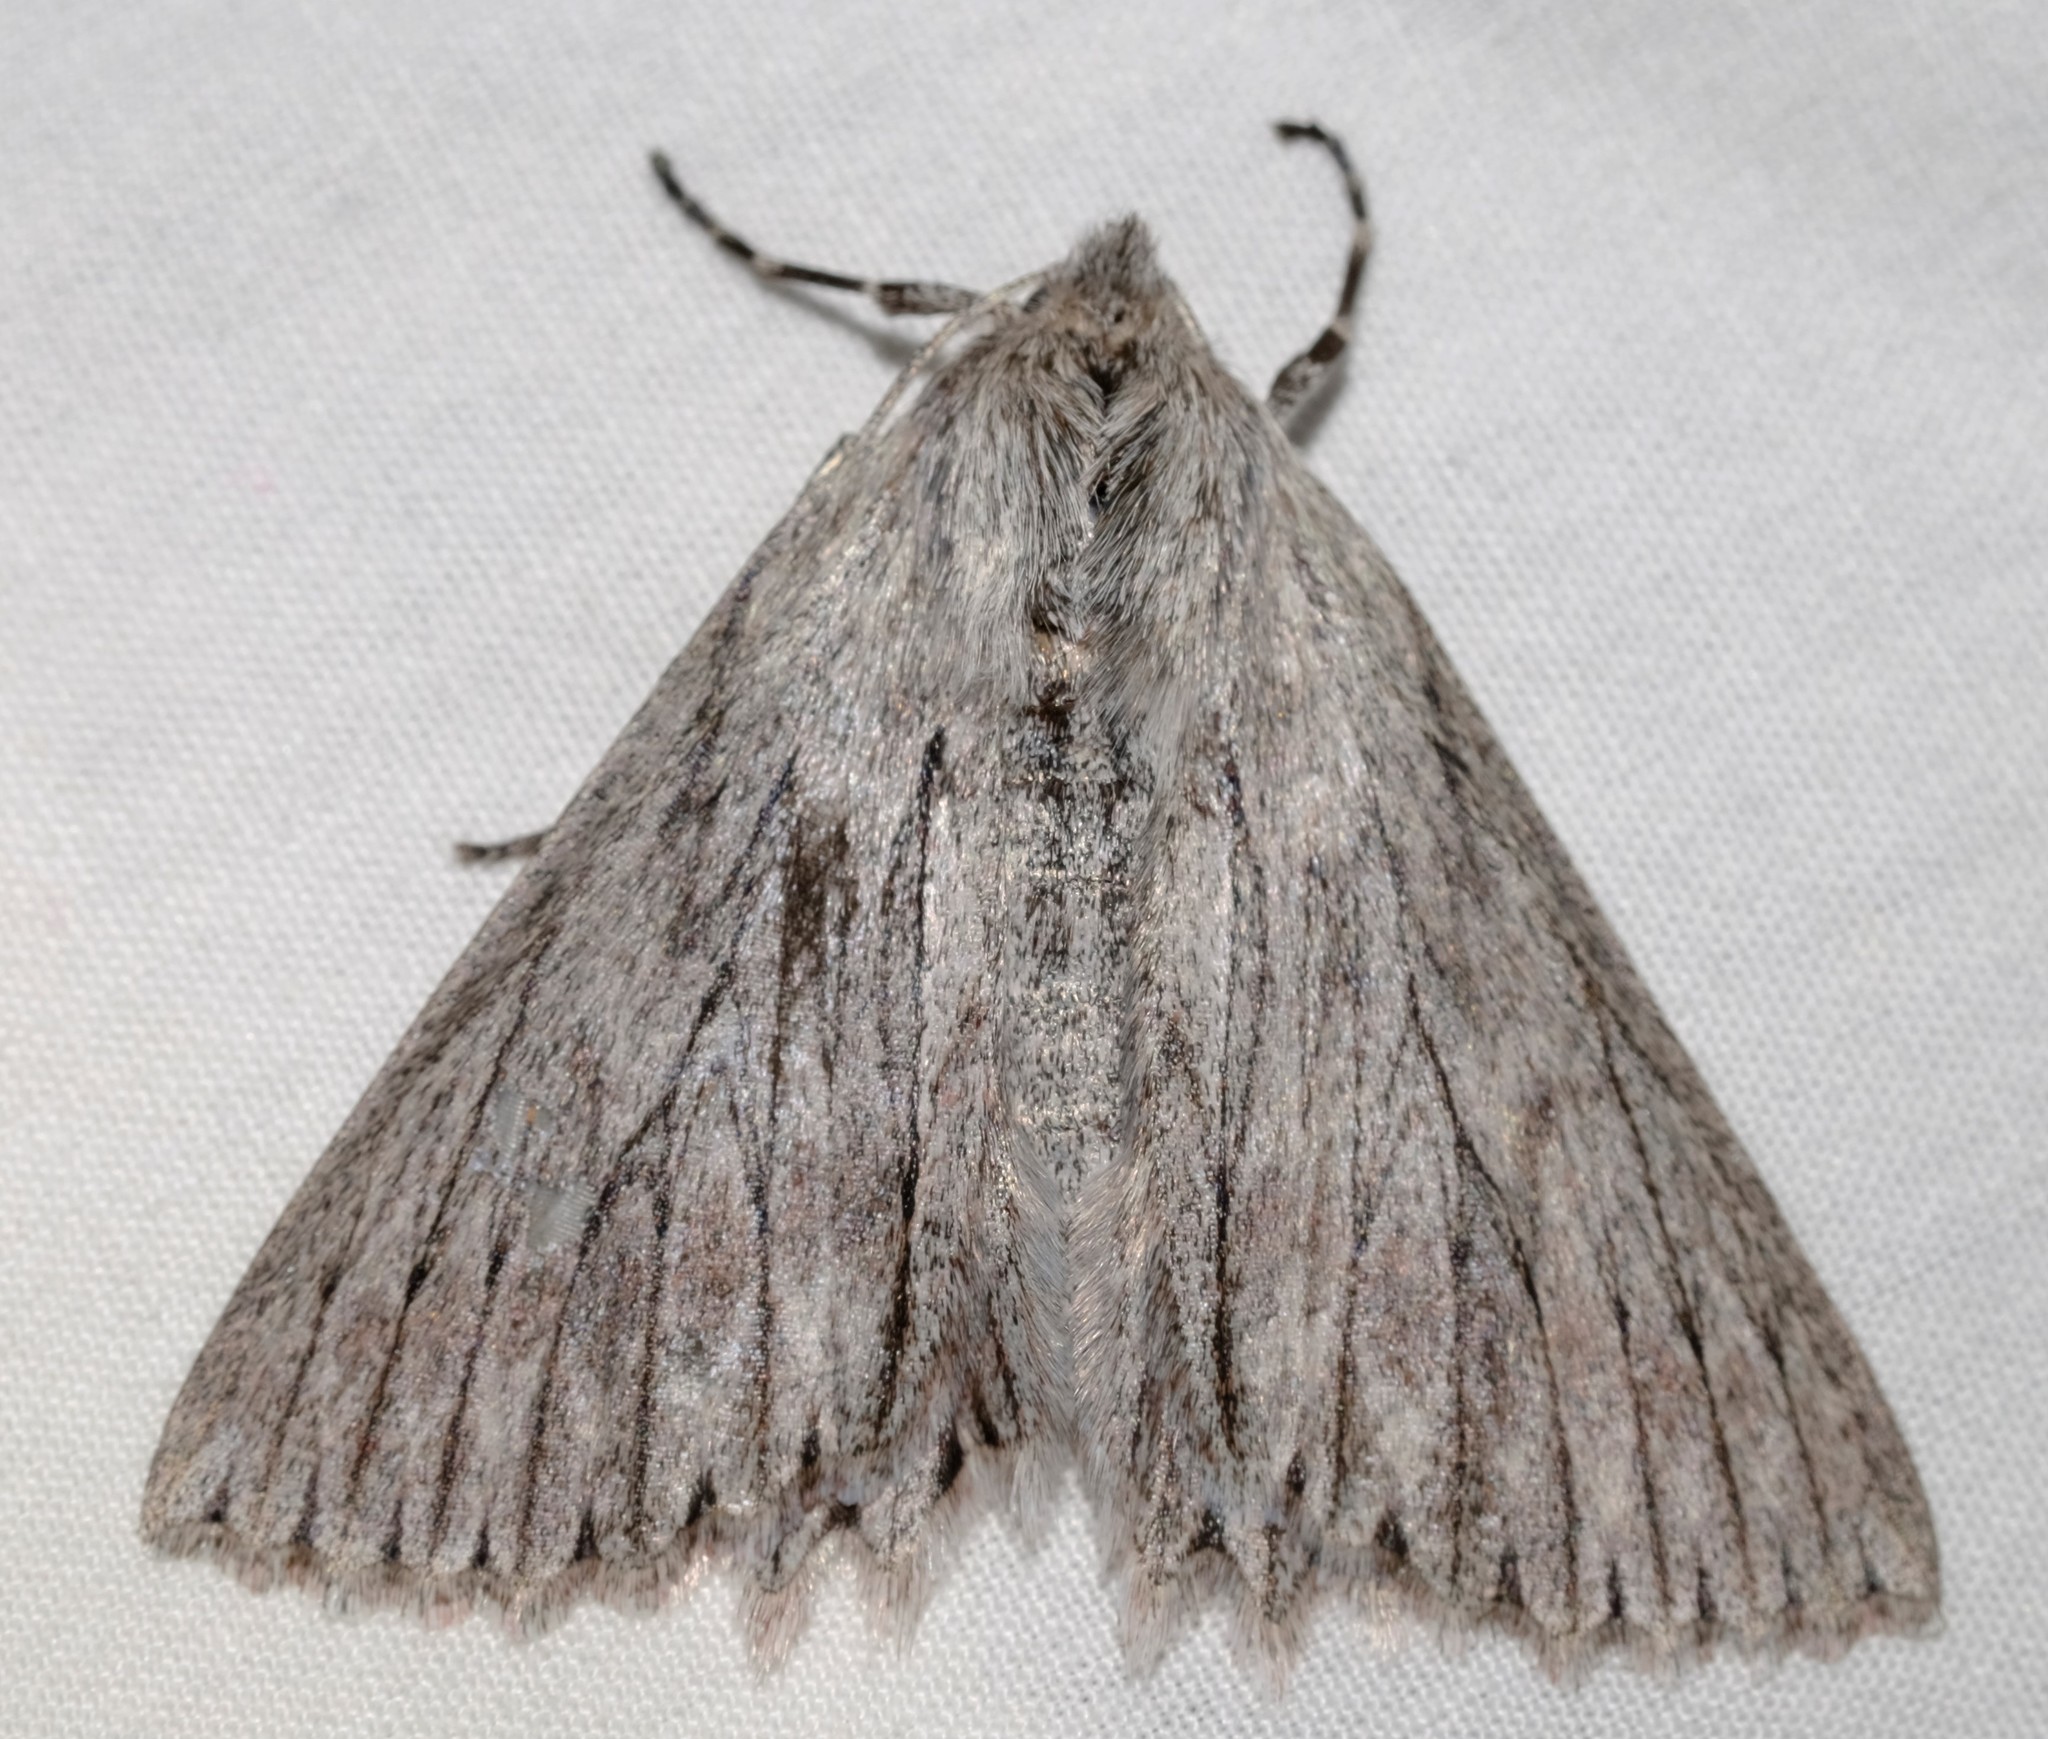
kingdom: Animalia
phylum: Arthropoda
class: Insecta
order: Lepidoptera
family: Geometridae
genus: Cyneoterpna
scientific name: Cyneoterpna wilsoni
